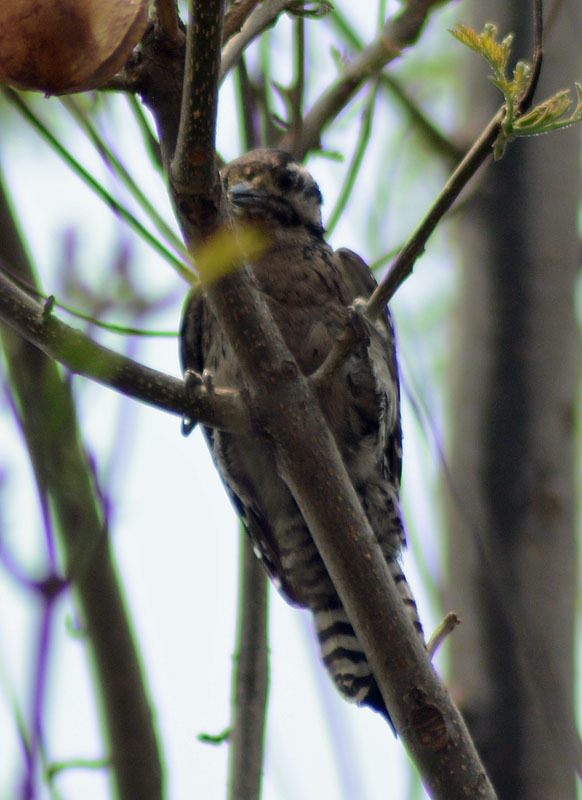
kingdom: Animalia
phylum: Chordata
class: Aves
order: Piciformes
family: Picidae
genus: Dryobates
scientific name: Dryobates scalaris
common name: Ladder-backed woodpecker
